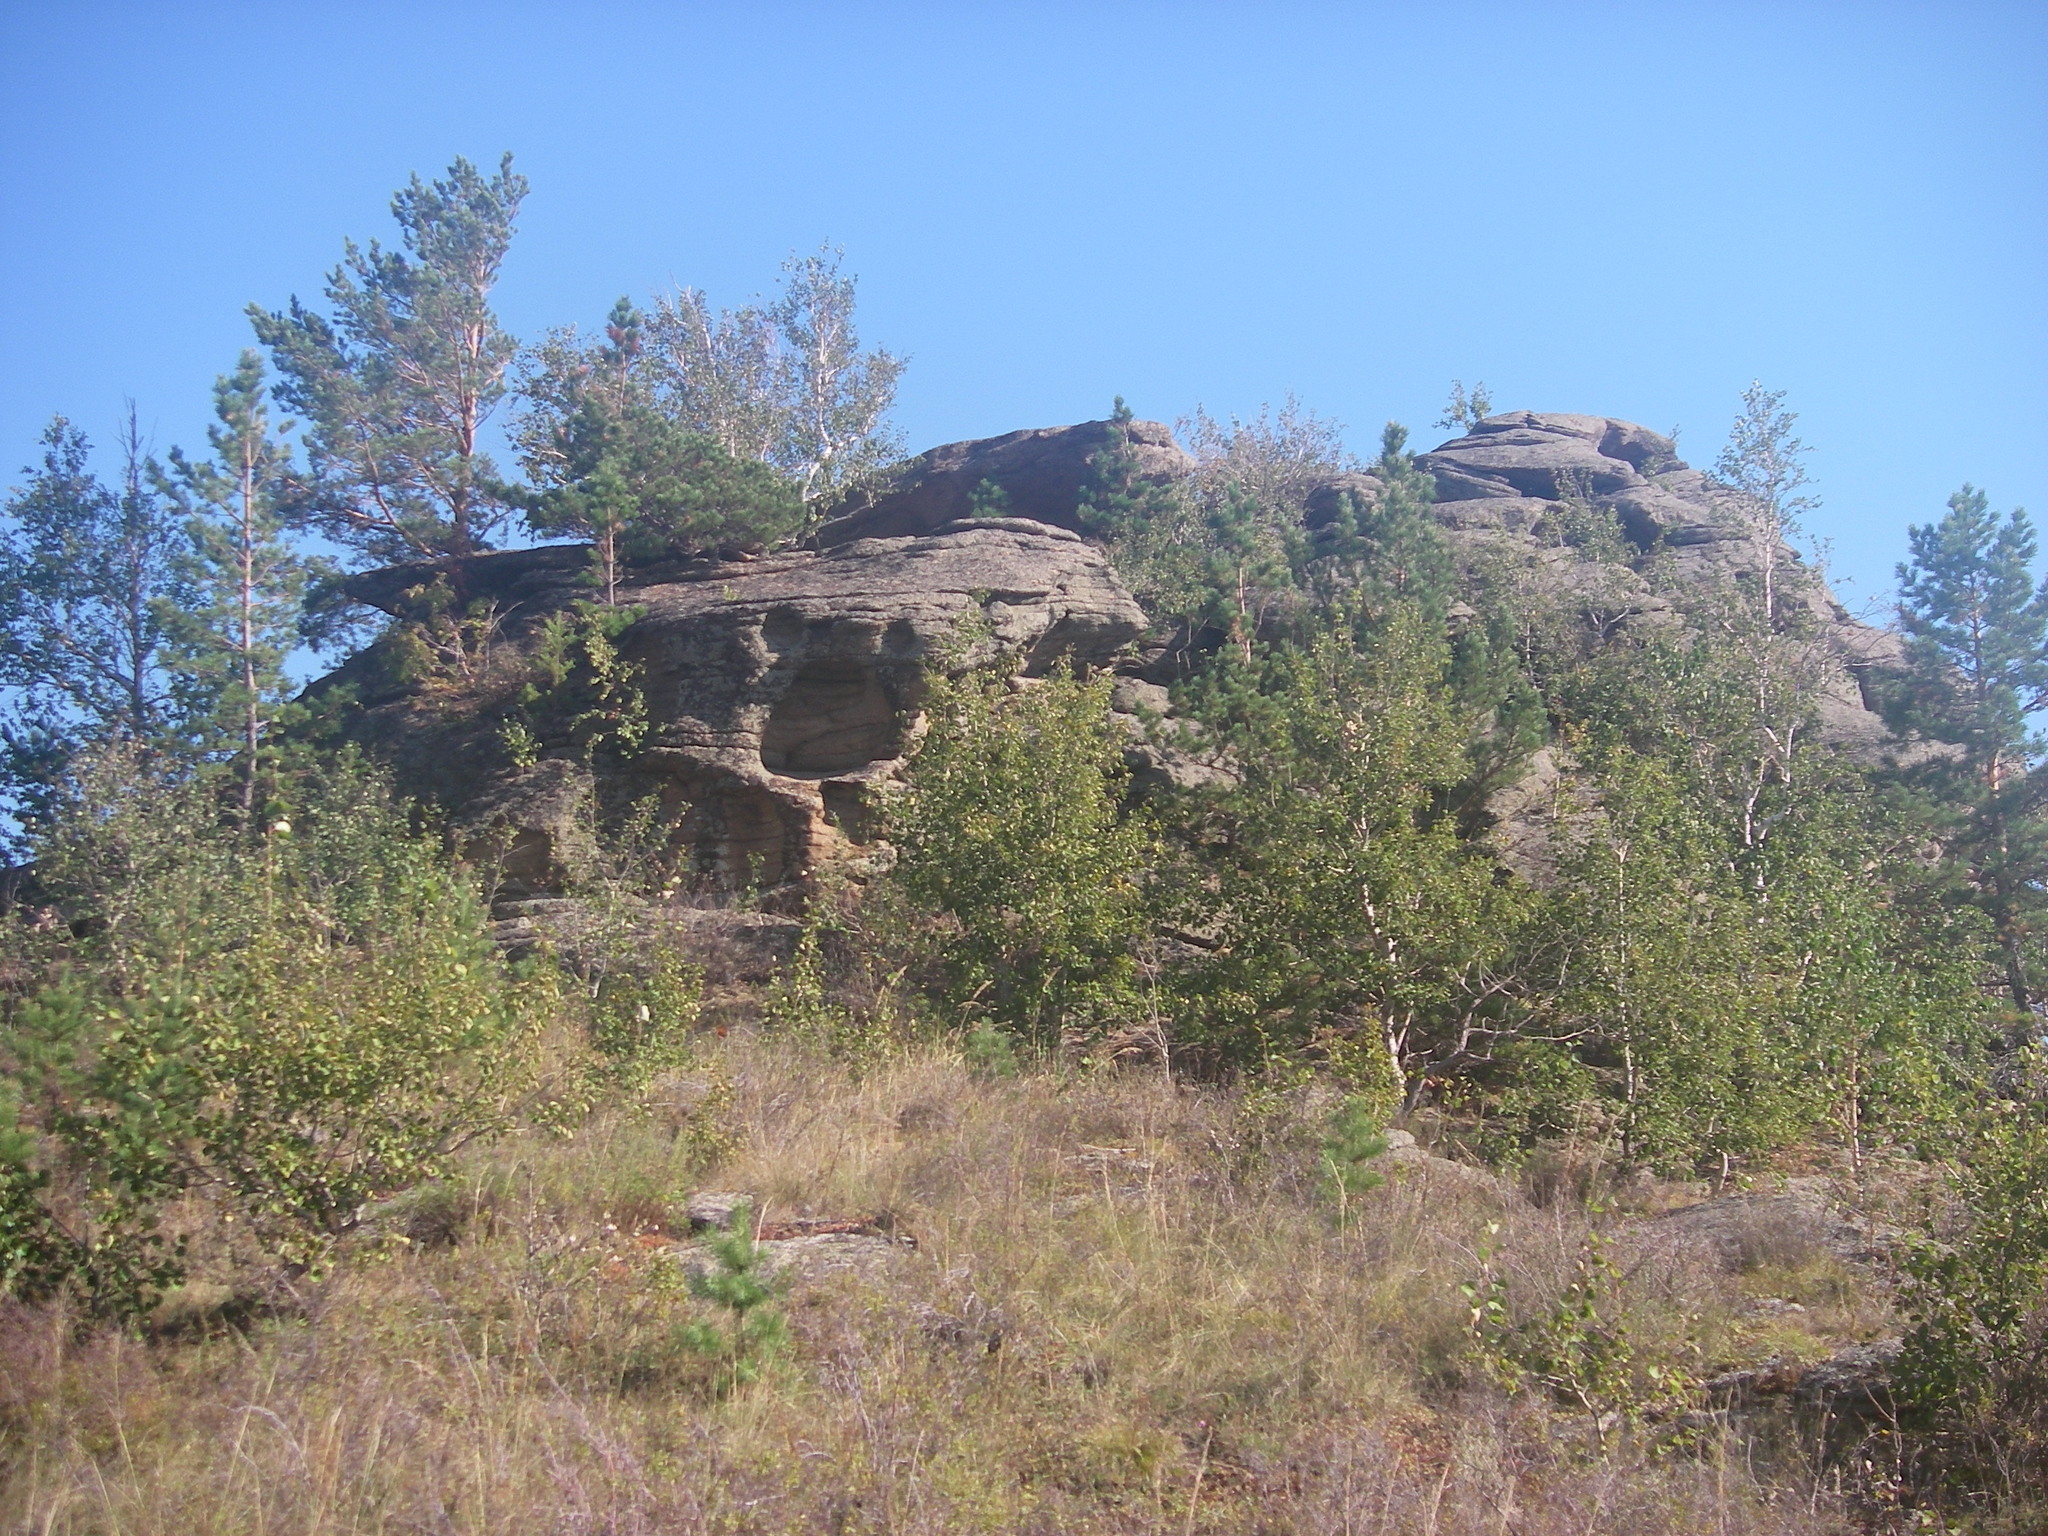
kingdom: Plantae
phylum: Tracheophyta
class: Pinopsida
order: Pinales
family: Pinaceae
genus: Pinus
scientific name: Pinus sylvestris
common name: Scots pine
